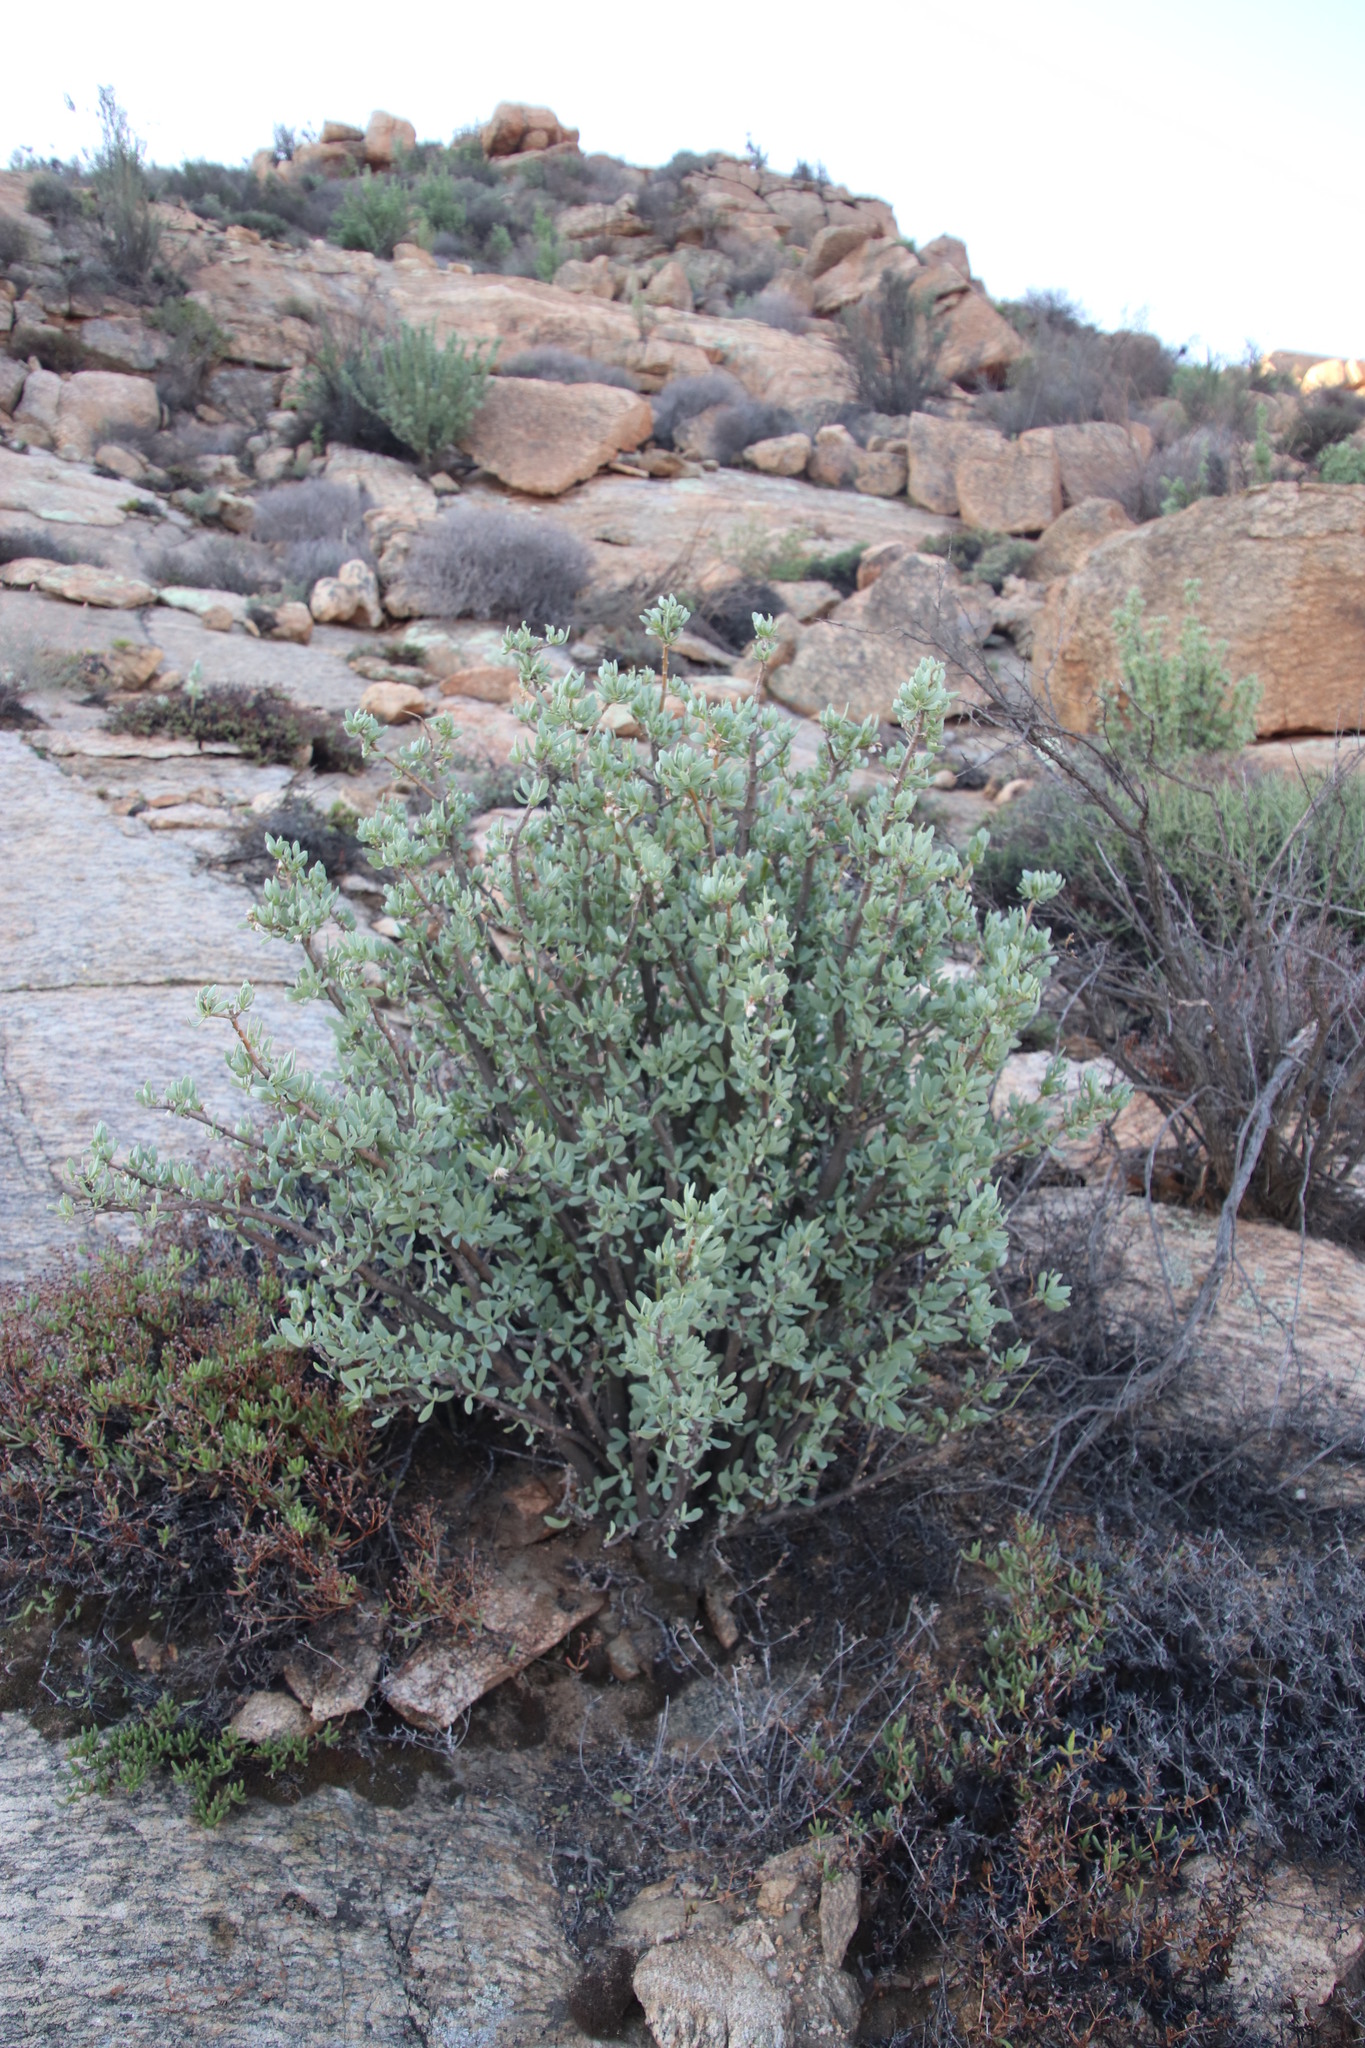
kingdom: Plantae
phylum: Tracheophyta
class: Magnoliopsida
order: Asterales
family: Asteraceae
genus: Othonna
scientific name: Othonna cerarioides
